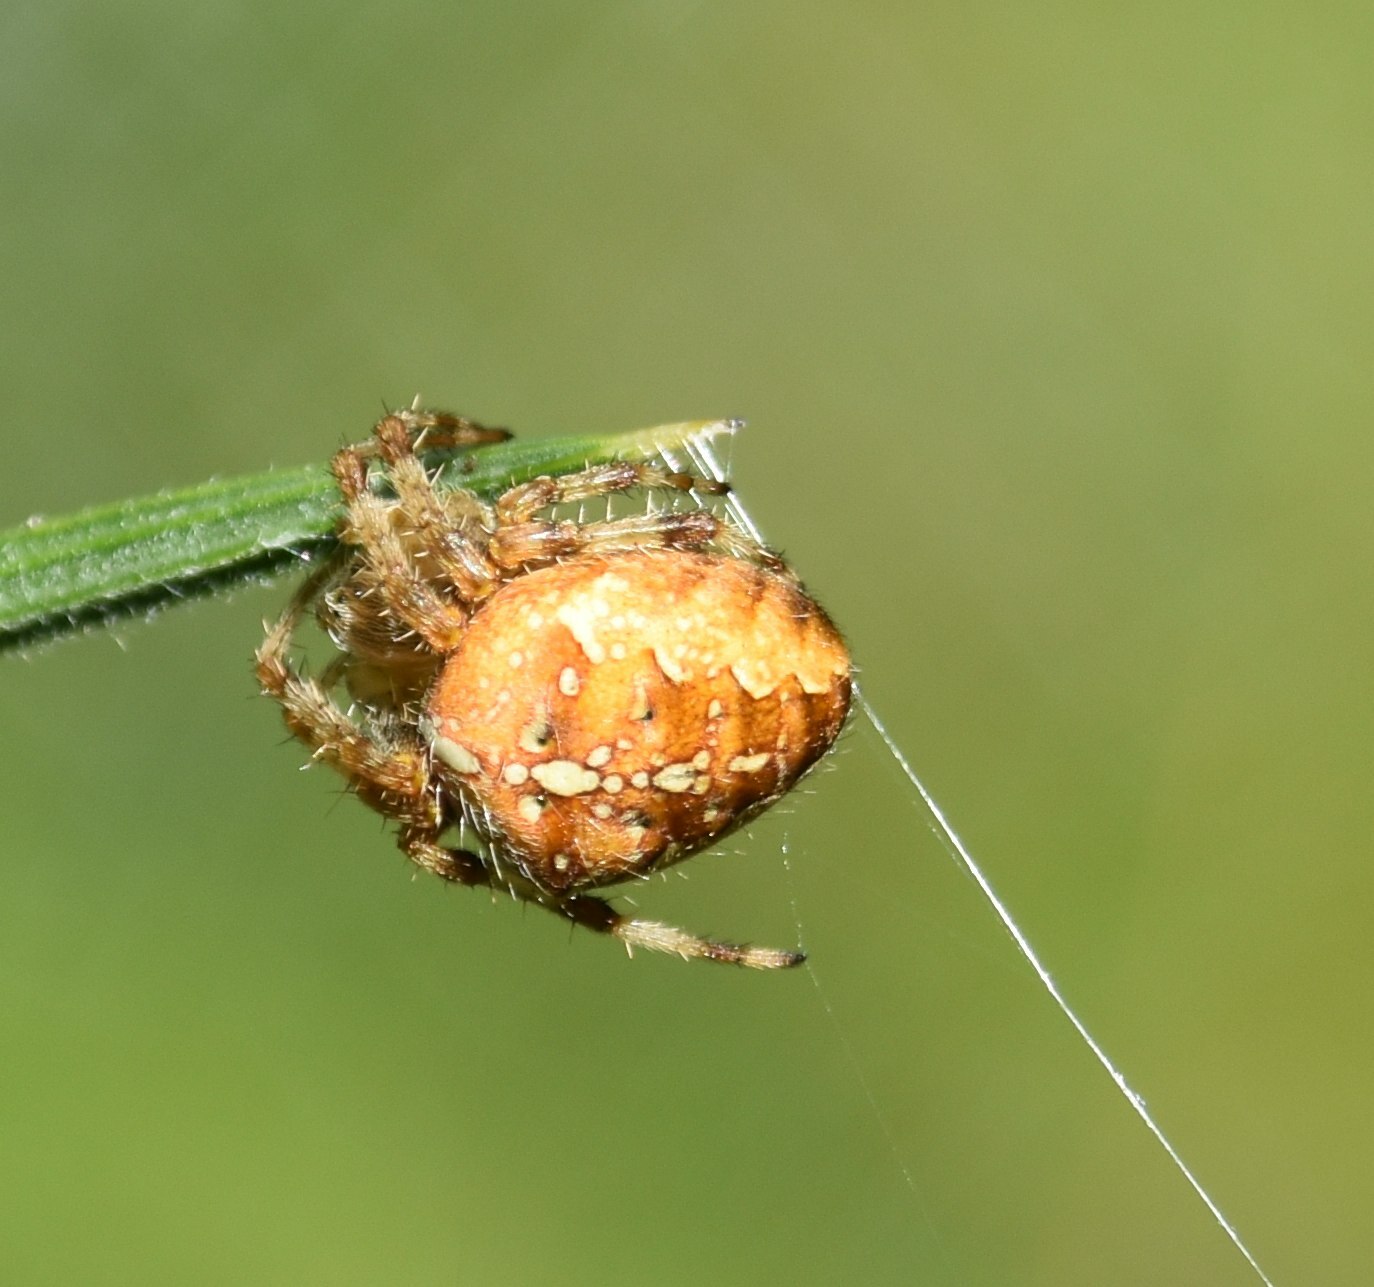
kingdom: Animalia
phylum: Arthropoda
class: Arachnida
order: Araneae
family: Araneidae
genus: Araneus
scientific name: Araneus diadematus
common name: Cross orbweaver
